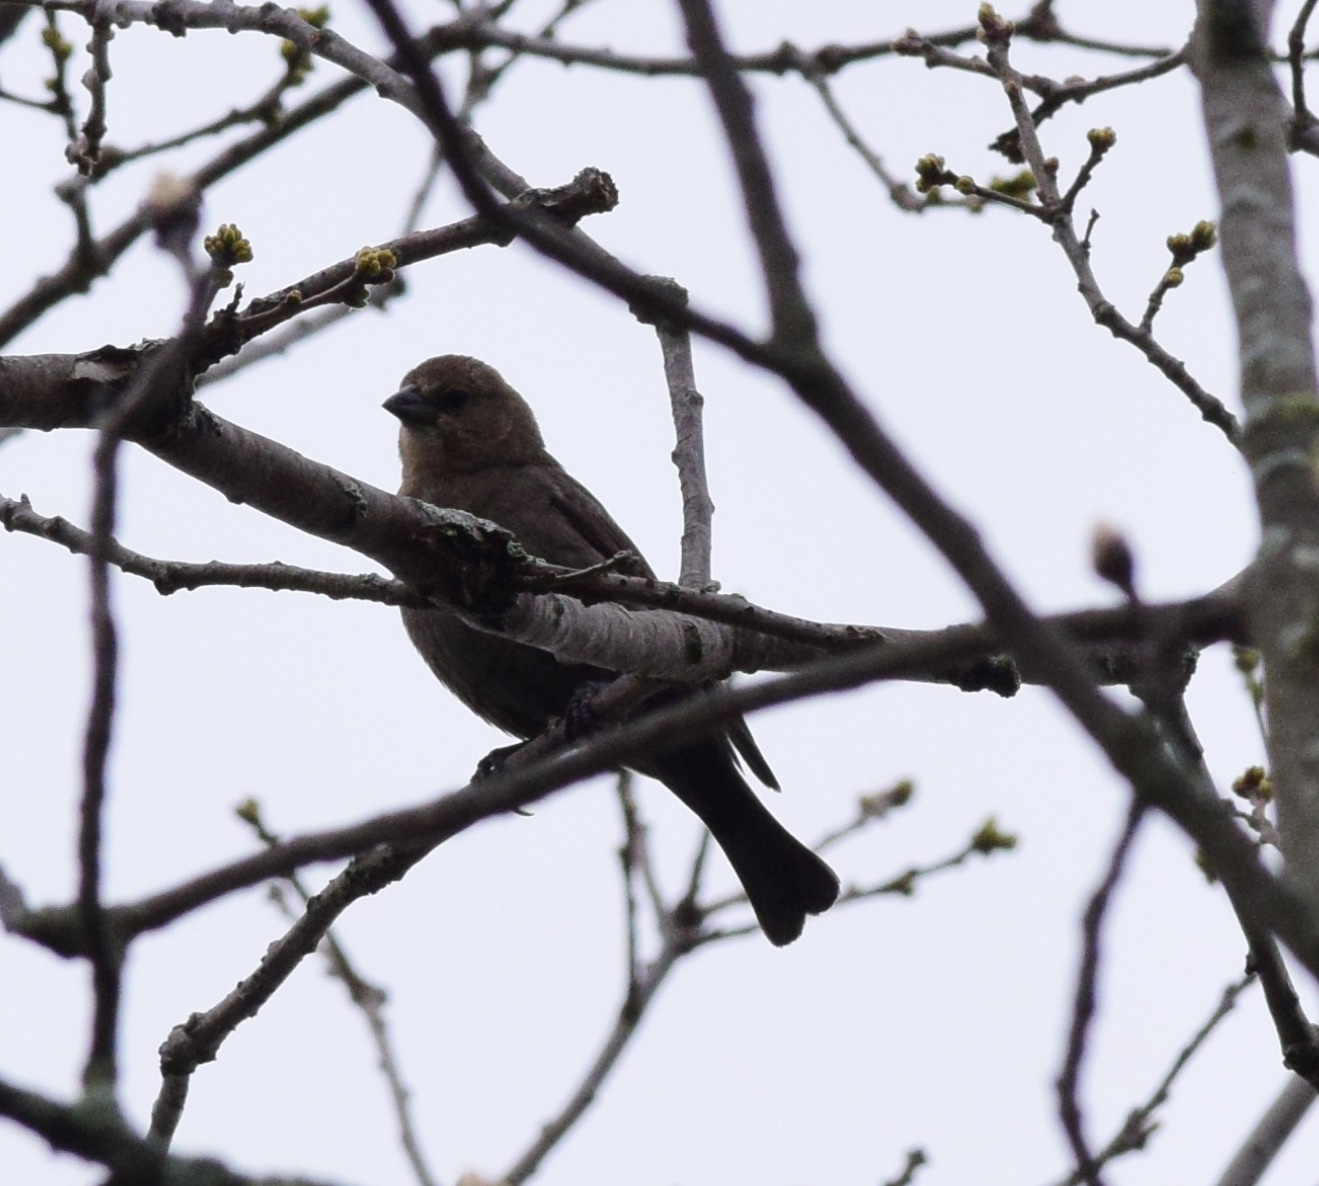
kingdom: Animalia
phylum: Chordata
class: Aves
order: Passeriformes
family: Icteridae
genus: Molothrus
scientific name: Molothrus ater
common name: Brown-headed cowbird
